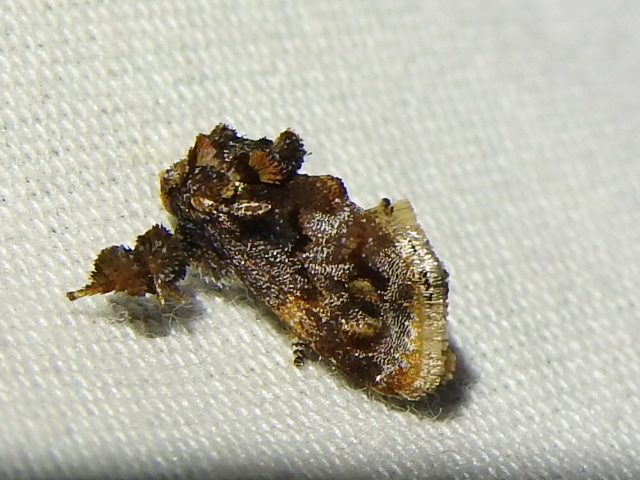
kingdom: Animalia
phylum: Arthropoda
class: Insecta
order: Lepidoptera
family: Limacodidae
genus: Isochaetes
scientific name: Isochaetes beutenmuelleri
